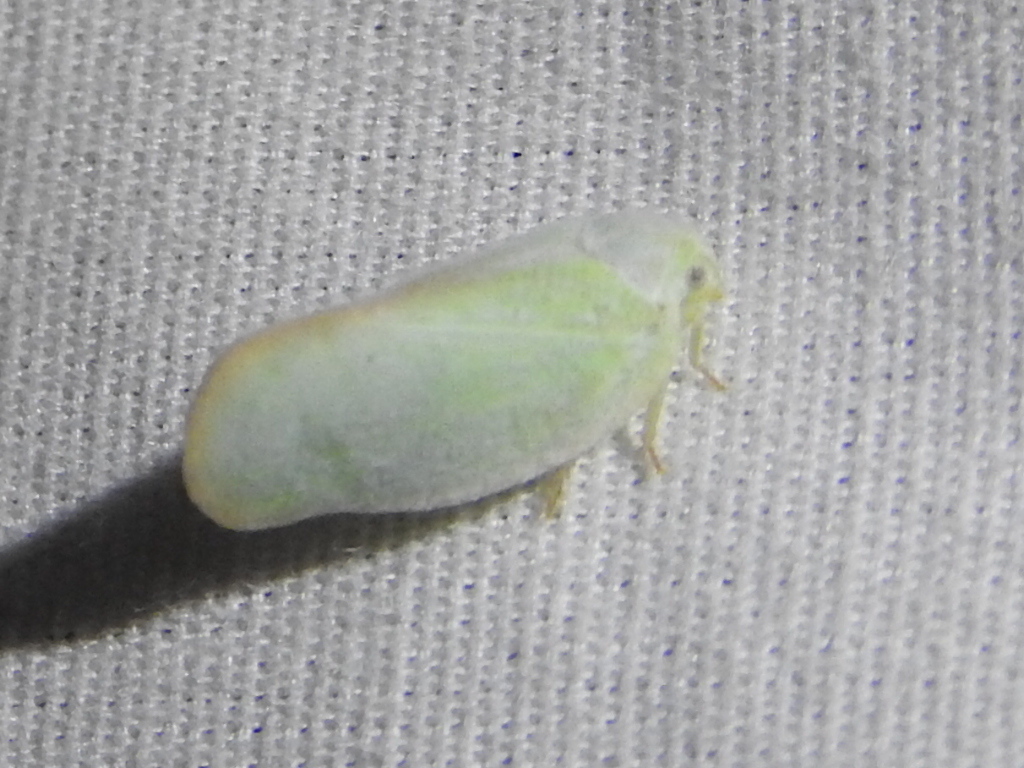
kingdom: Animalia
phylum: Arthropoda
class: Insecta
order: Hemiptera
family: Flatidae
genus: Ormenoides
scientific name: Ormenoides venusta
